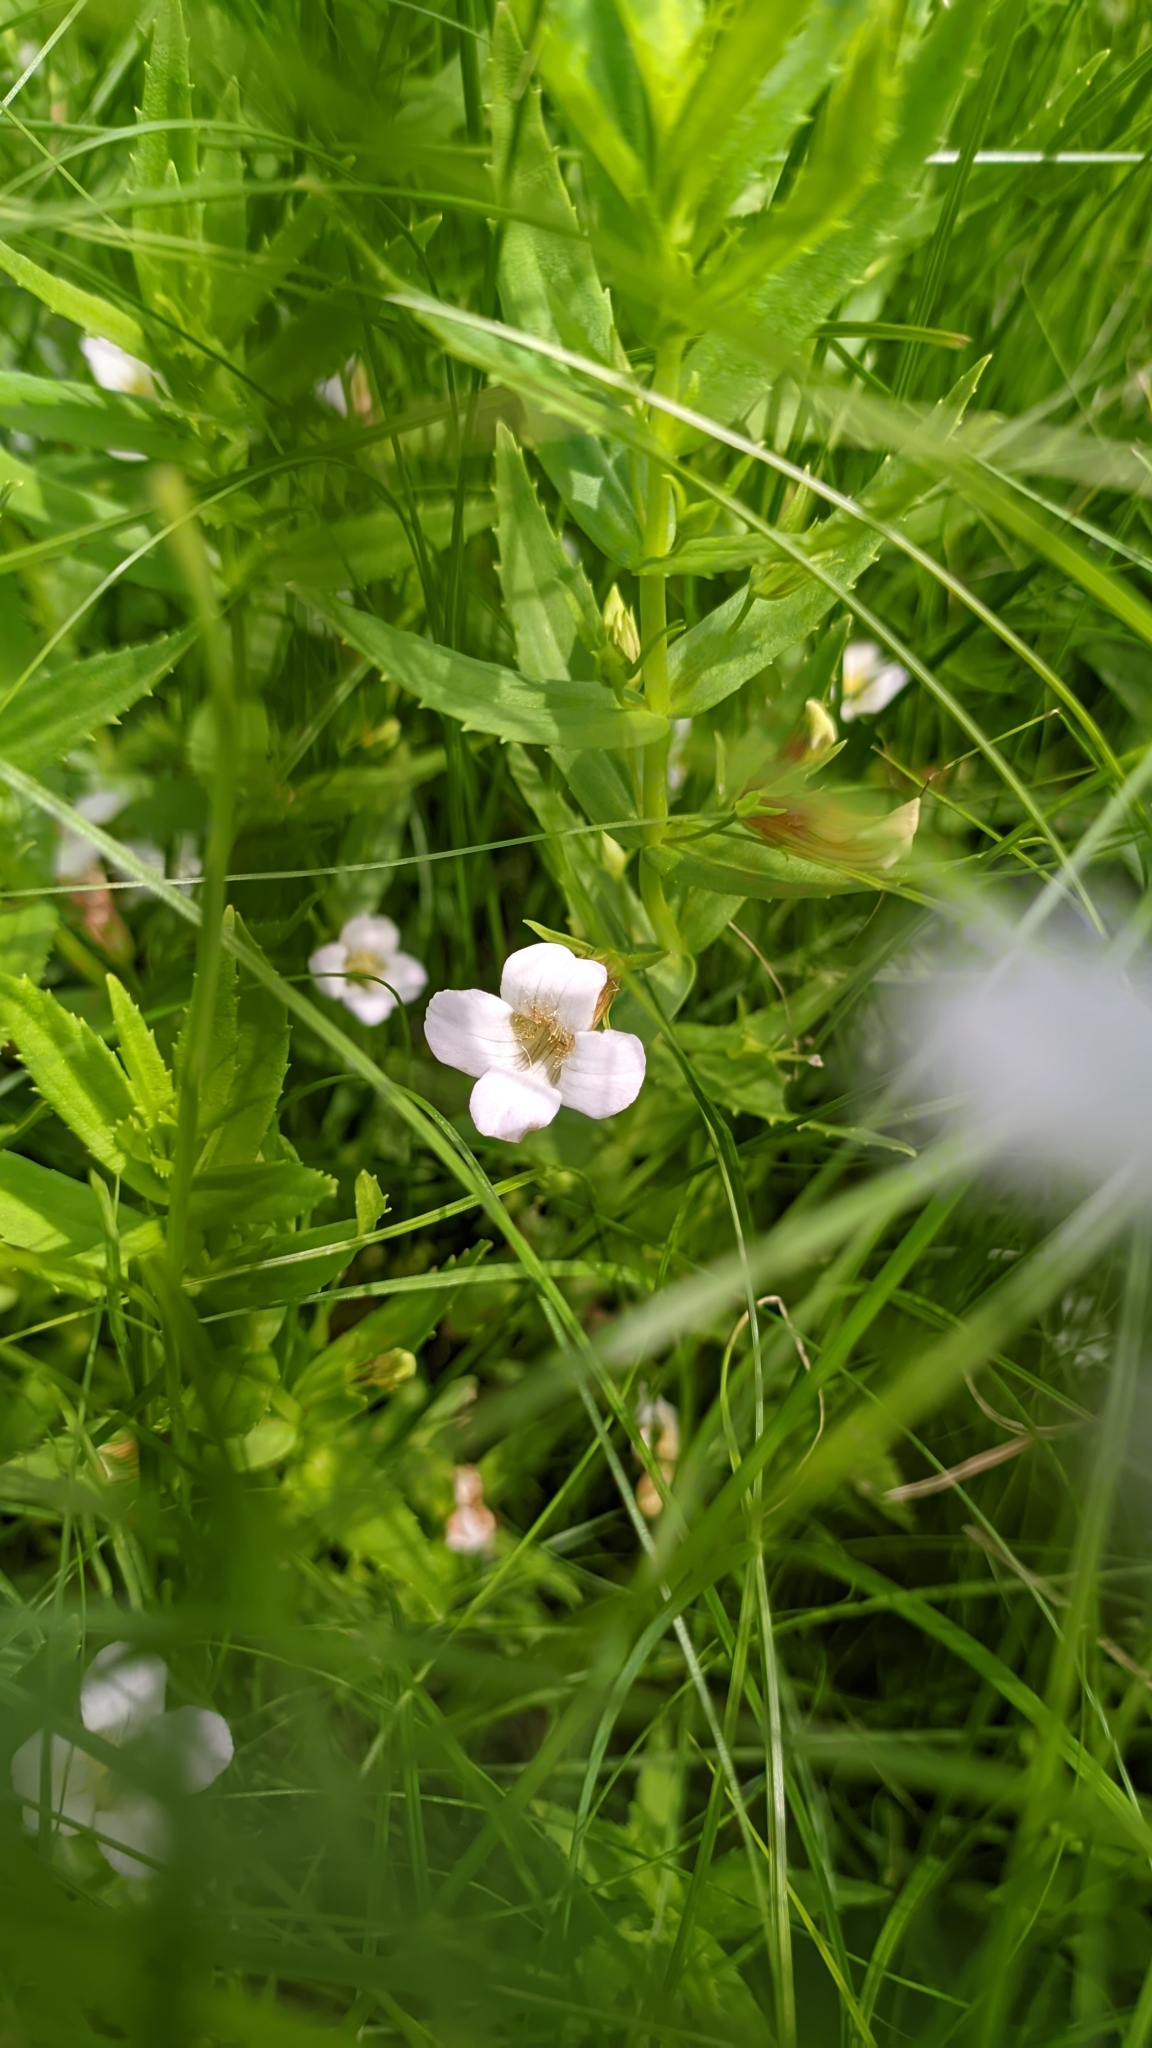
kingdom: Plantae
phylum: Tracheophyta
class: Magnoliopsida
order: Lamiales
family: Plantaginaceae
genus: Gratiola
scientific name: Gratiola officinalis
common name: Gratiola
